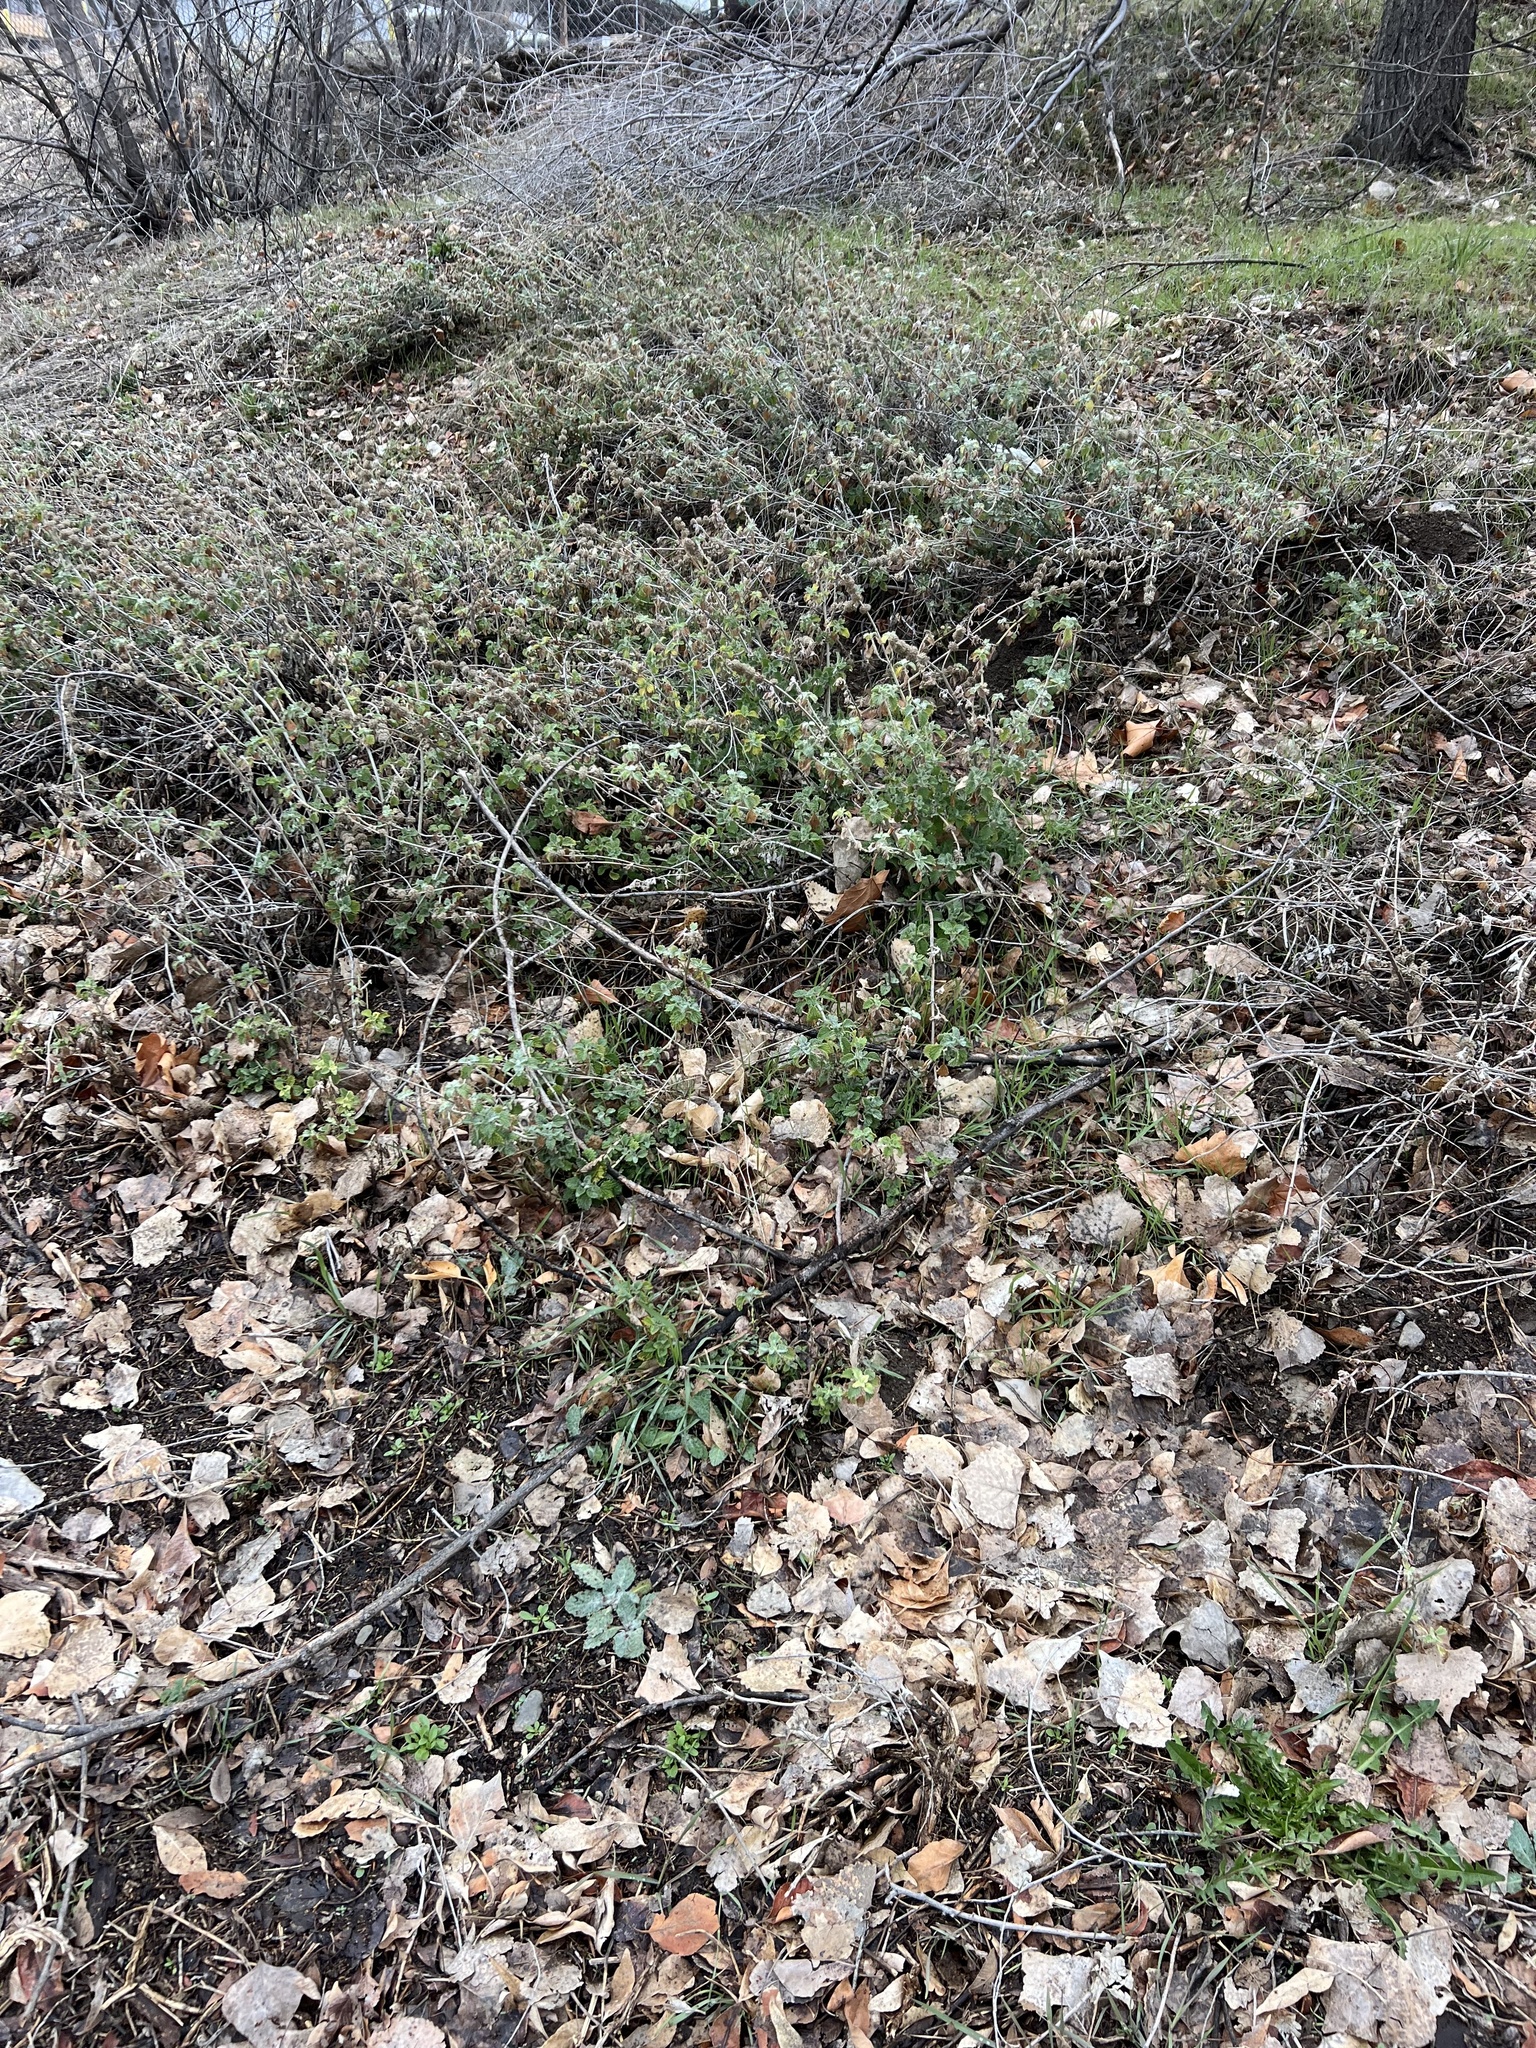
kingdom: Plantae
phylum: Tracheophyta
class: Magnoliopsida
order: Lamiales
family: Lamiaceae
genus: Marrubium
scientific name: Marrubium vulgare
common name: Horehound
